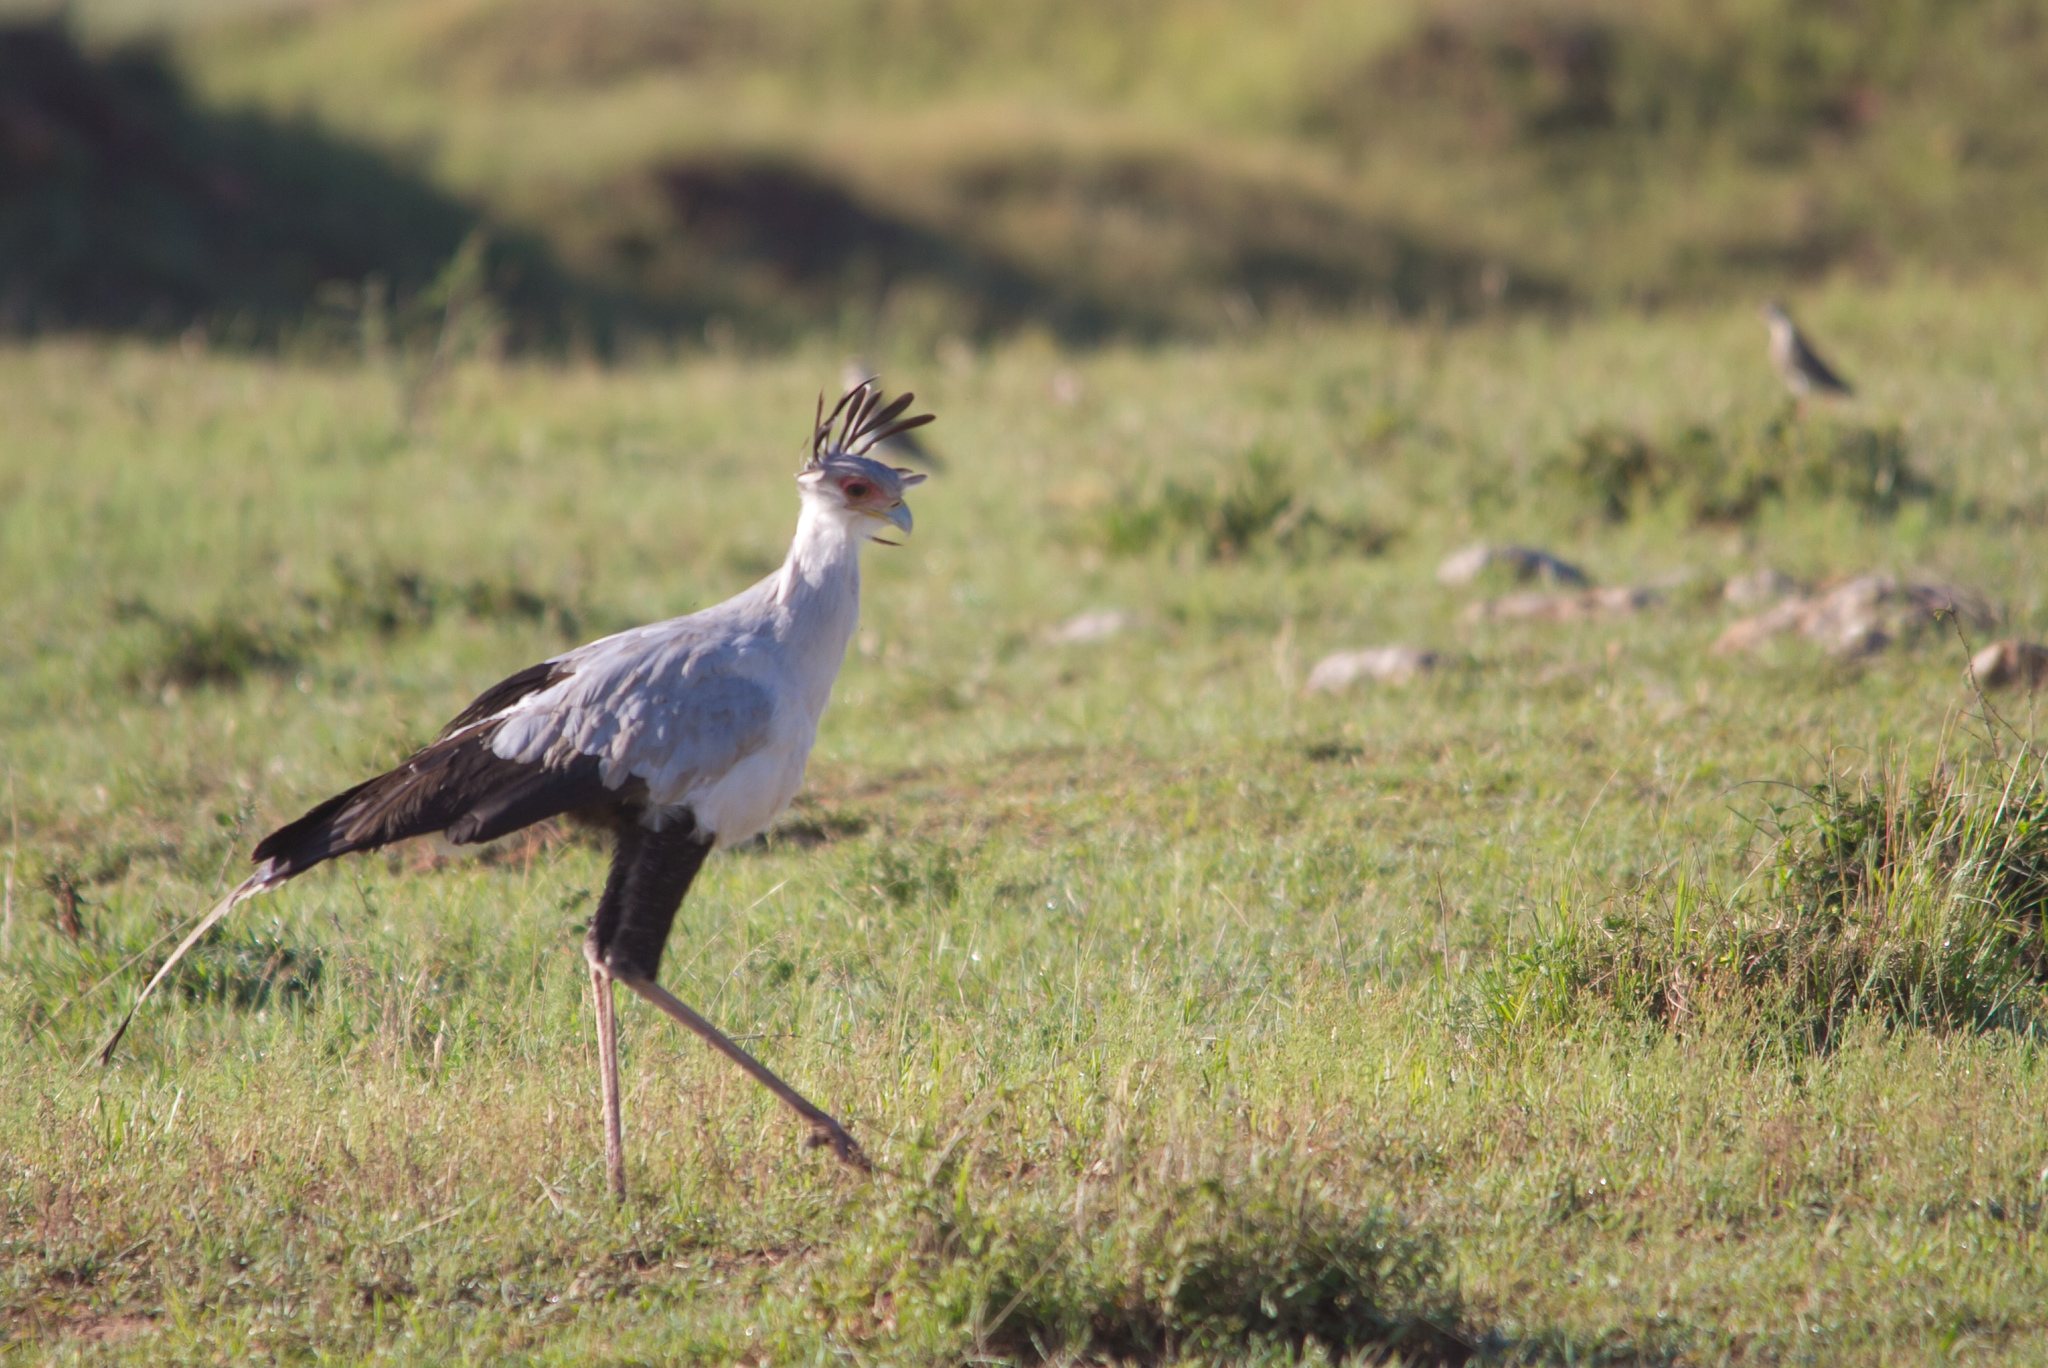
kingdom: Animalia
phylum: Chordata
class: Aves
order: Accipitriformes
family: Sagittariidae
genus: Sagittarius
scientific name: Sagittarius serpentarius
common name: Secretarybird
